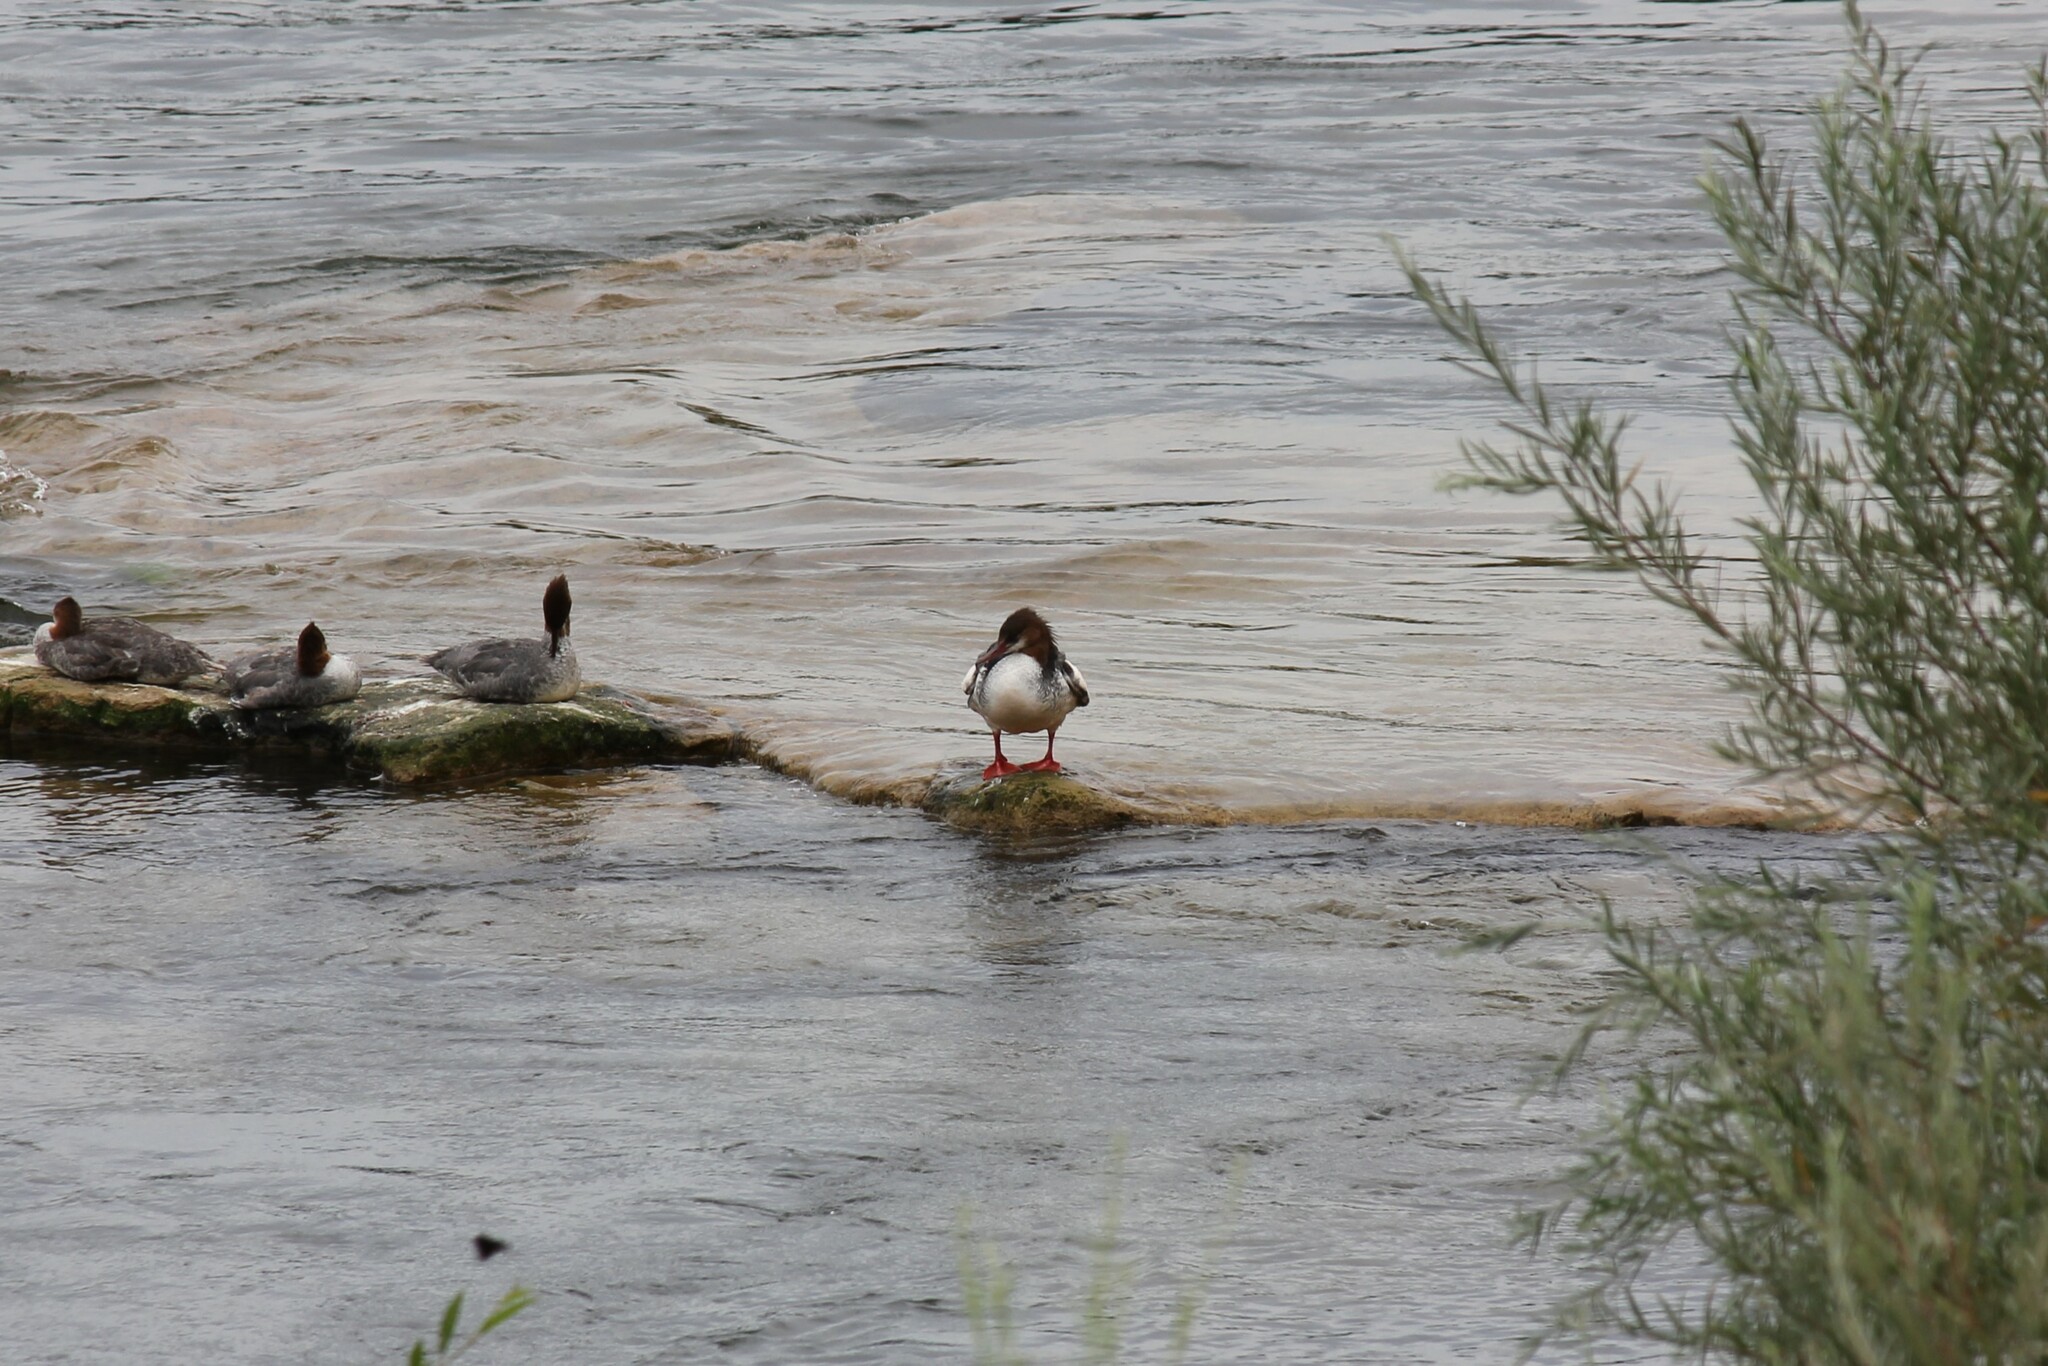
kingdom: Animalia
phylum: Chordata
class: Aves
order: Anseriformes
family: Anatidae
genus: Mergus
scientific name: Mergus merganser
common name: Common merganser
